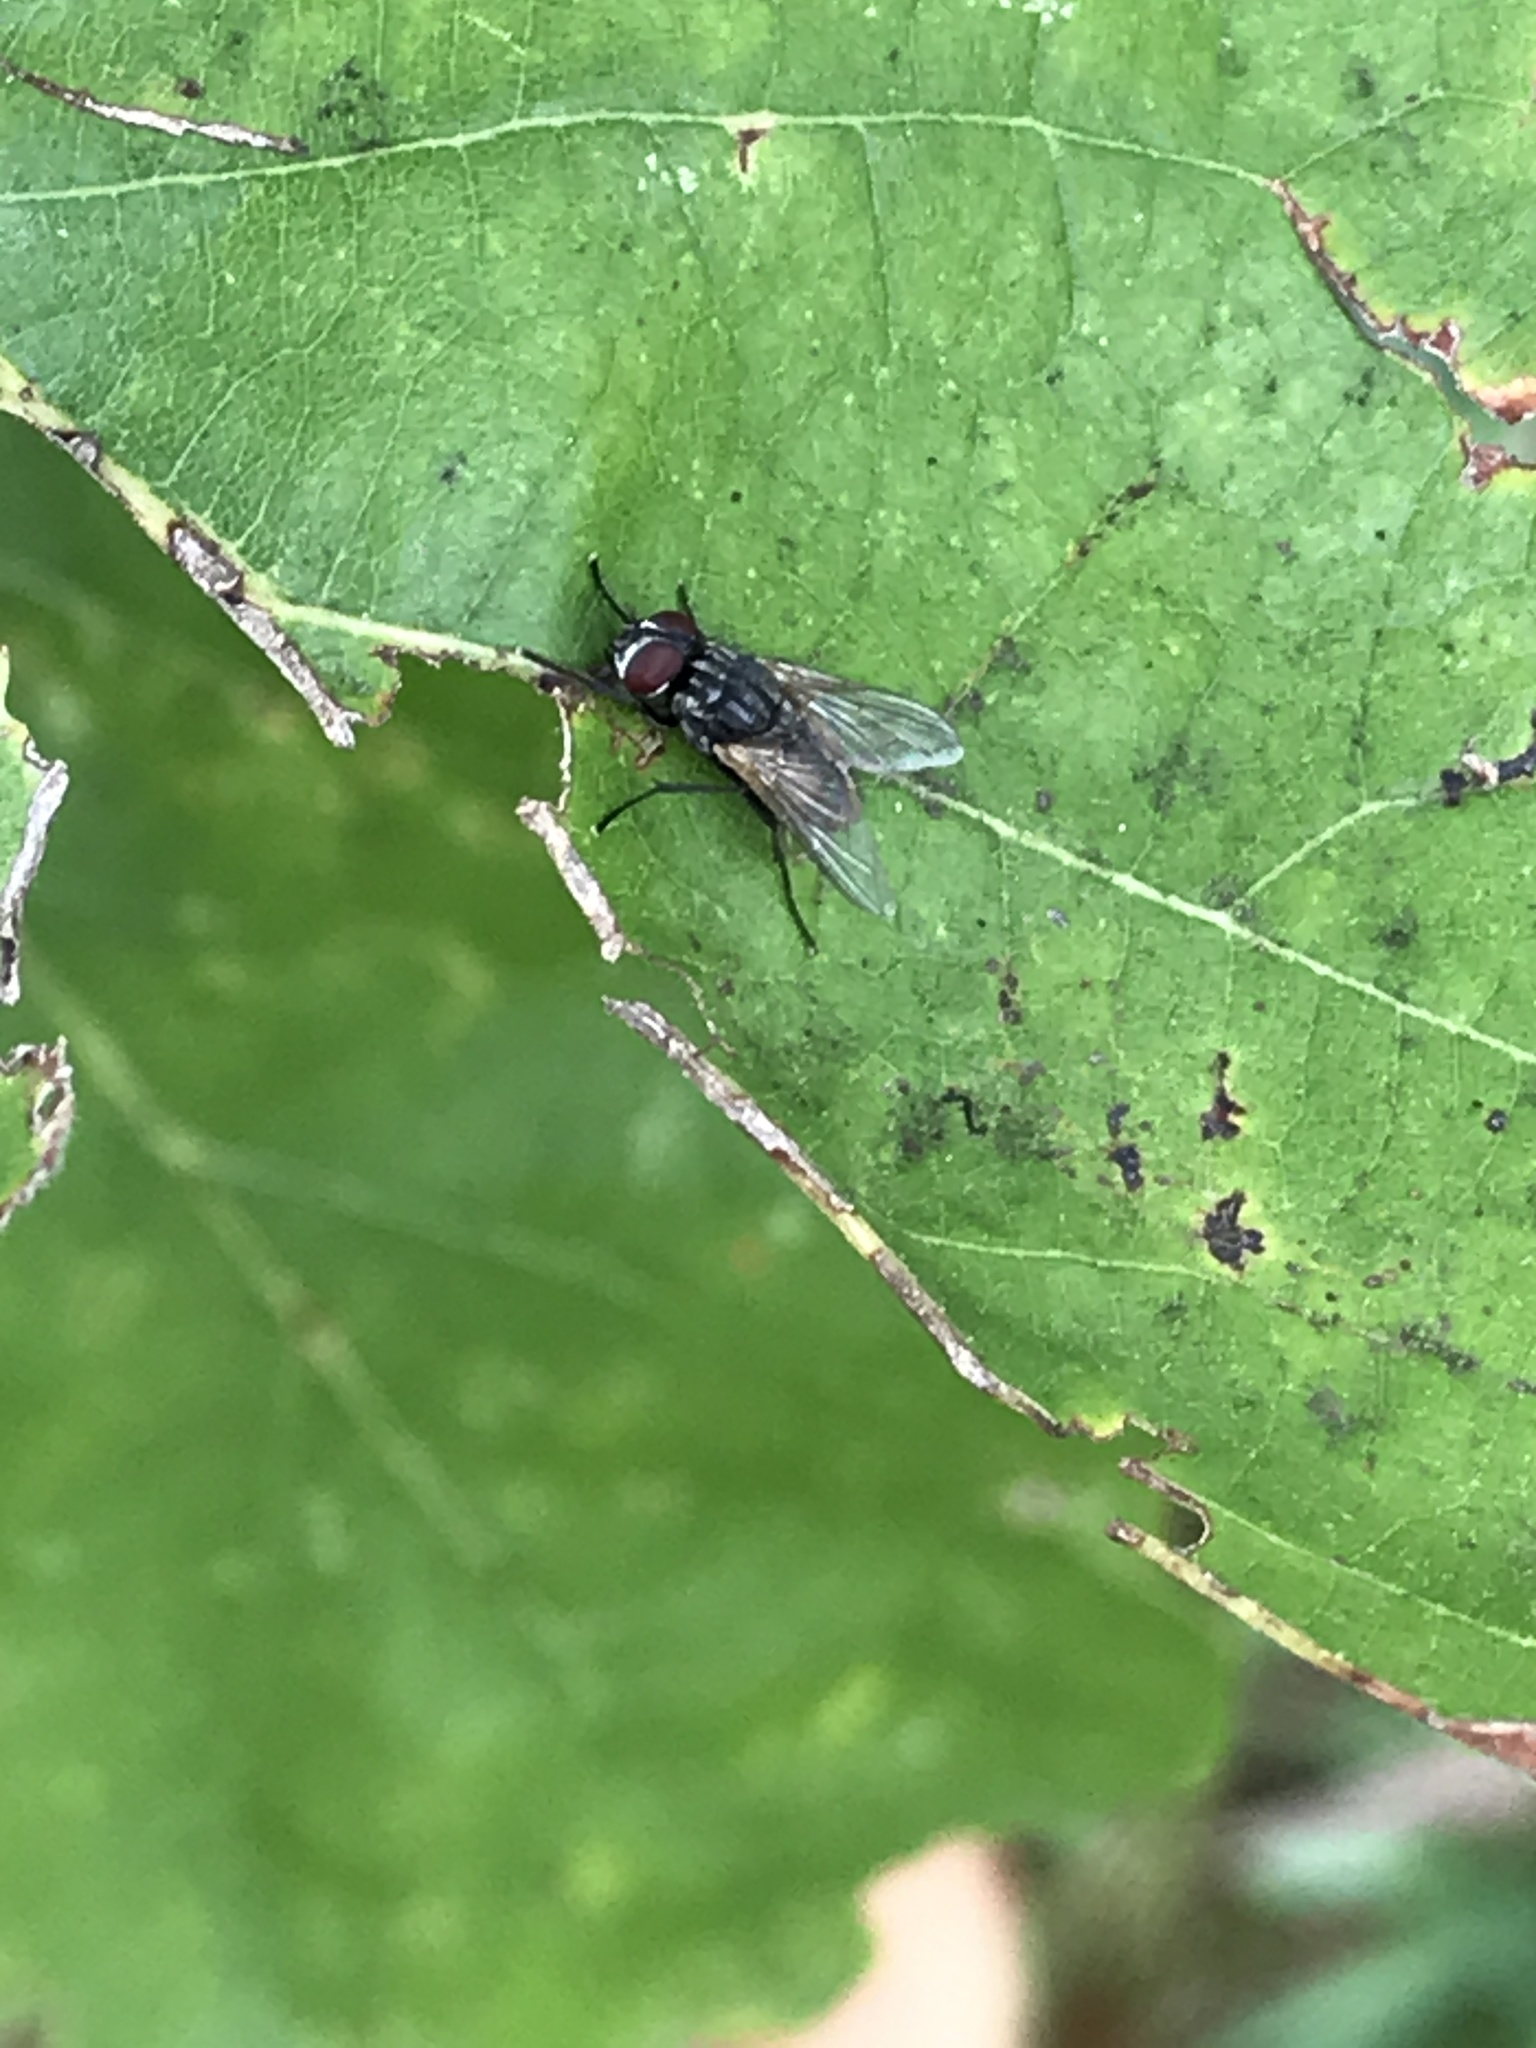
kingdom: Animalia
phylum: Arthropoda
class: Insecta
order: Diptera
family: Muscidae
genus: Musca
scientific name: Musca domestica
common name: House fly
